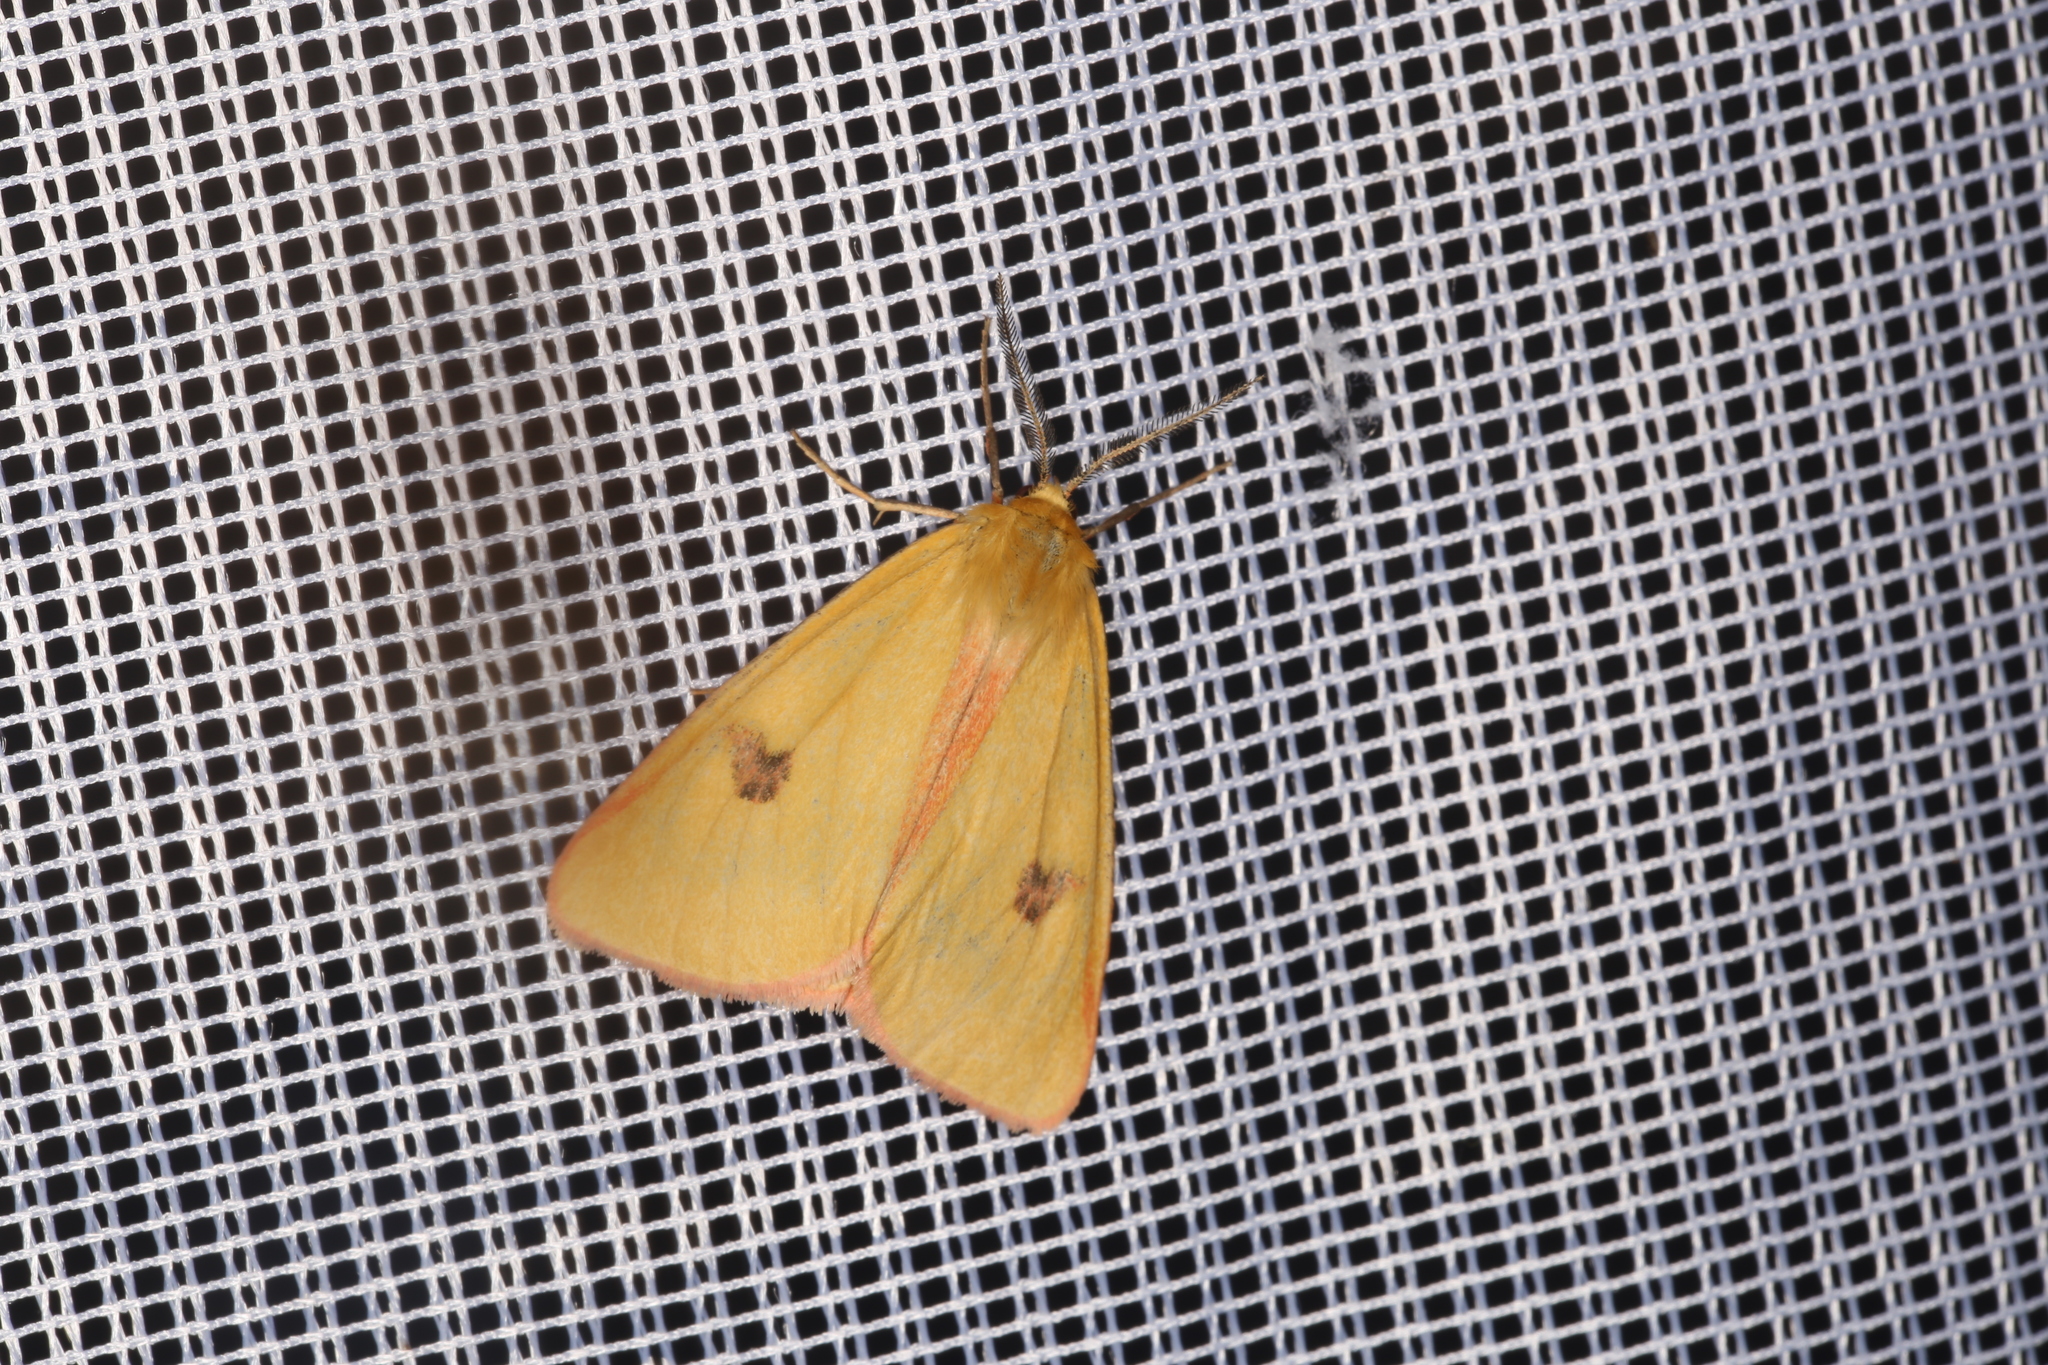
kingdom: Animalia
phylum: Arthropoda
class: Insecta
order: Lepidoptera
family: Erebidae
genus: Diacrisia
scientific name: Diacrisia sannio
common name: Clouded buff
